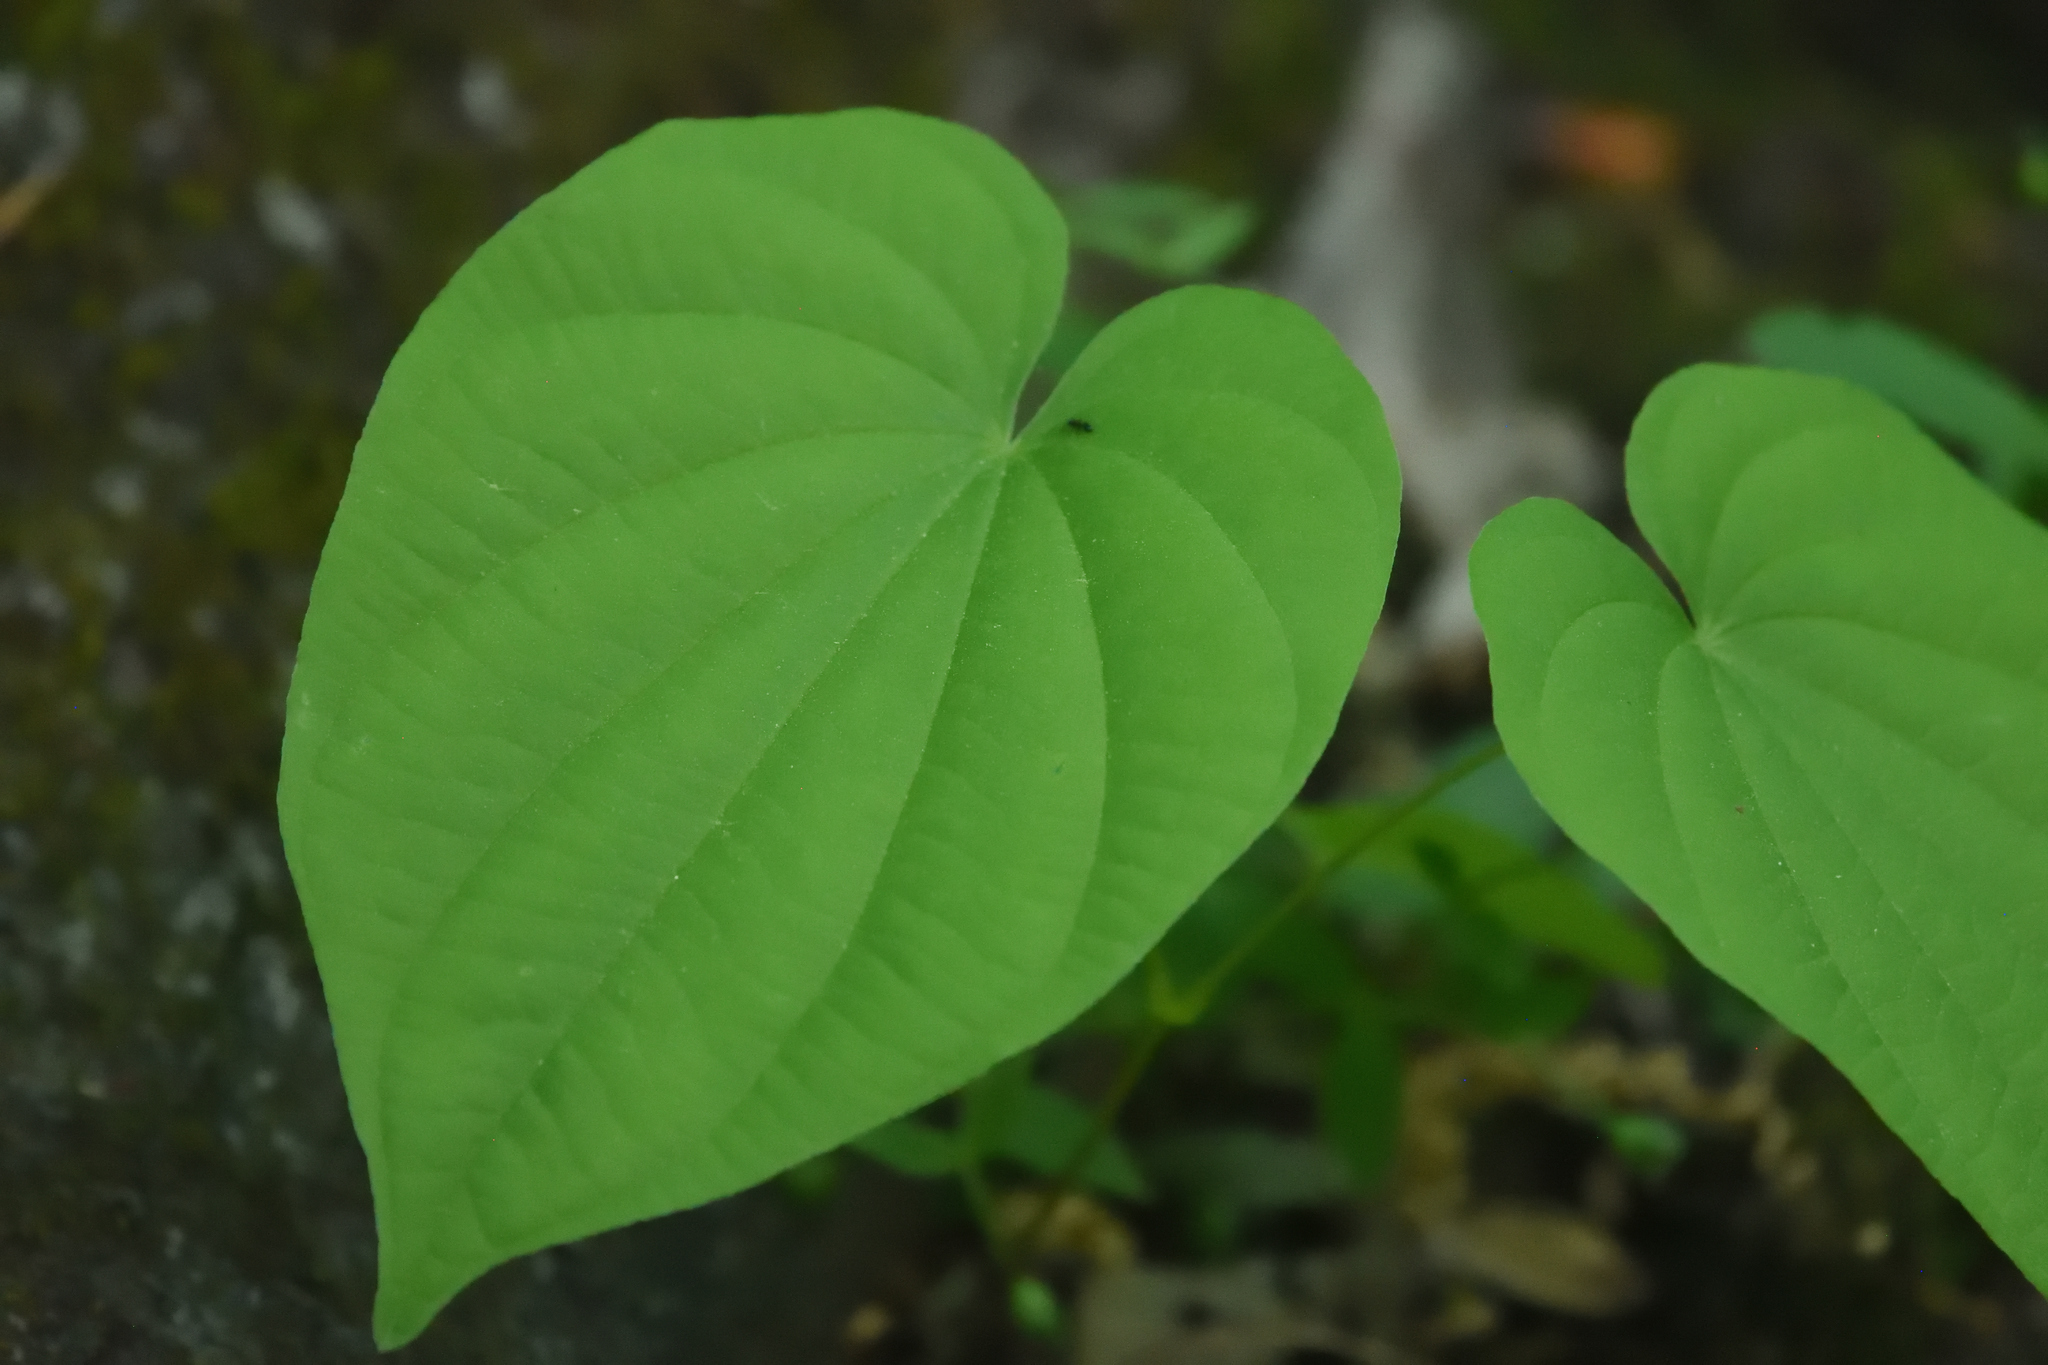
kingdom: Plantae
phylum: Tracheophyta
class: Liliopsida
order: Dioscoreales
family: Dioscoreaceae
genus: Dioscorea
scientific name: Dioscorea villosa
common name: Wild yam
